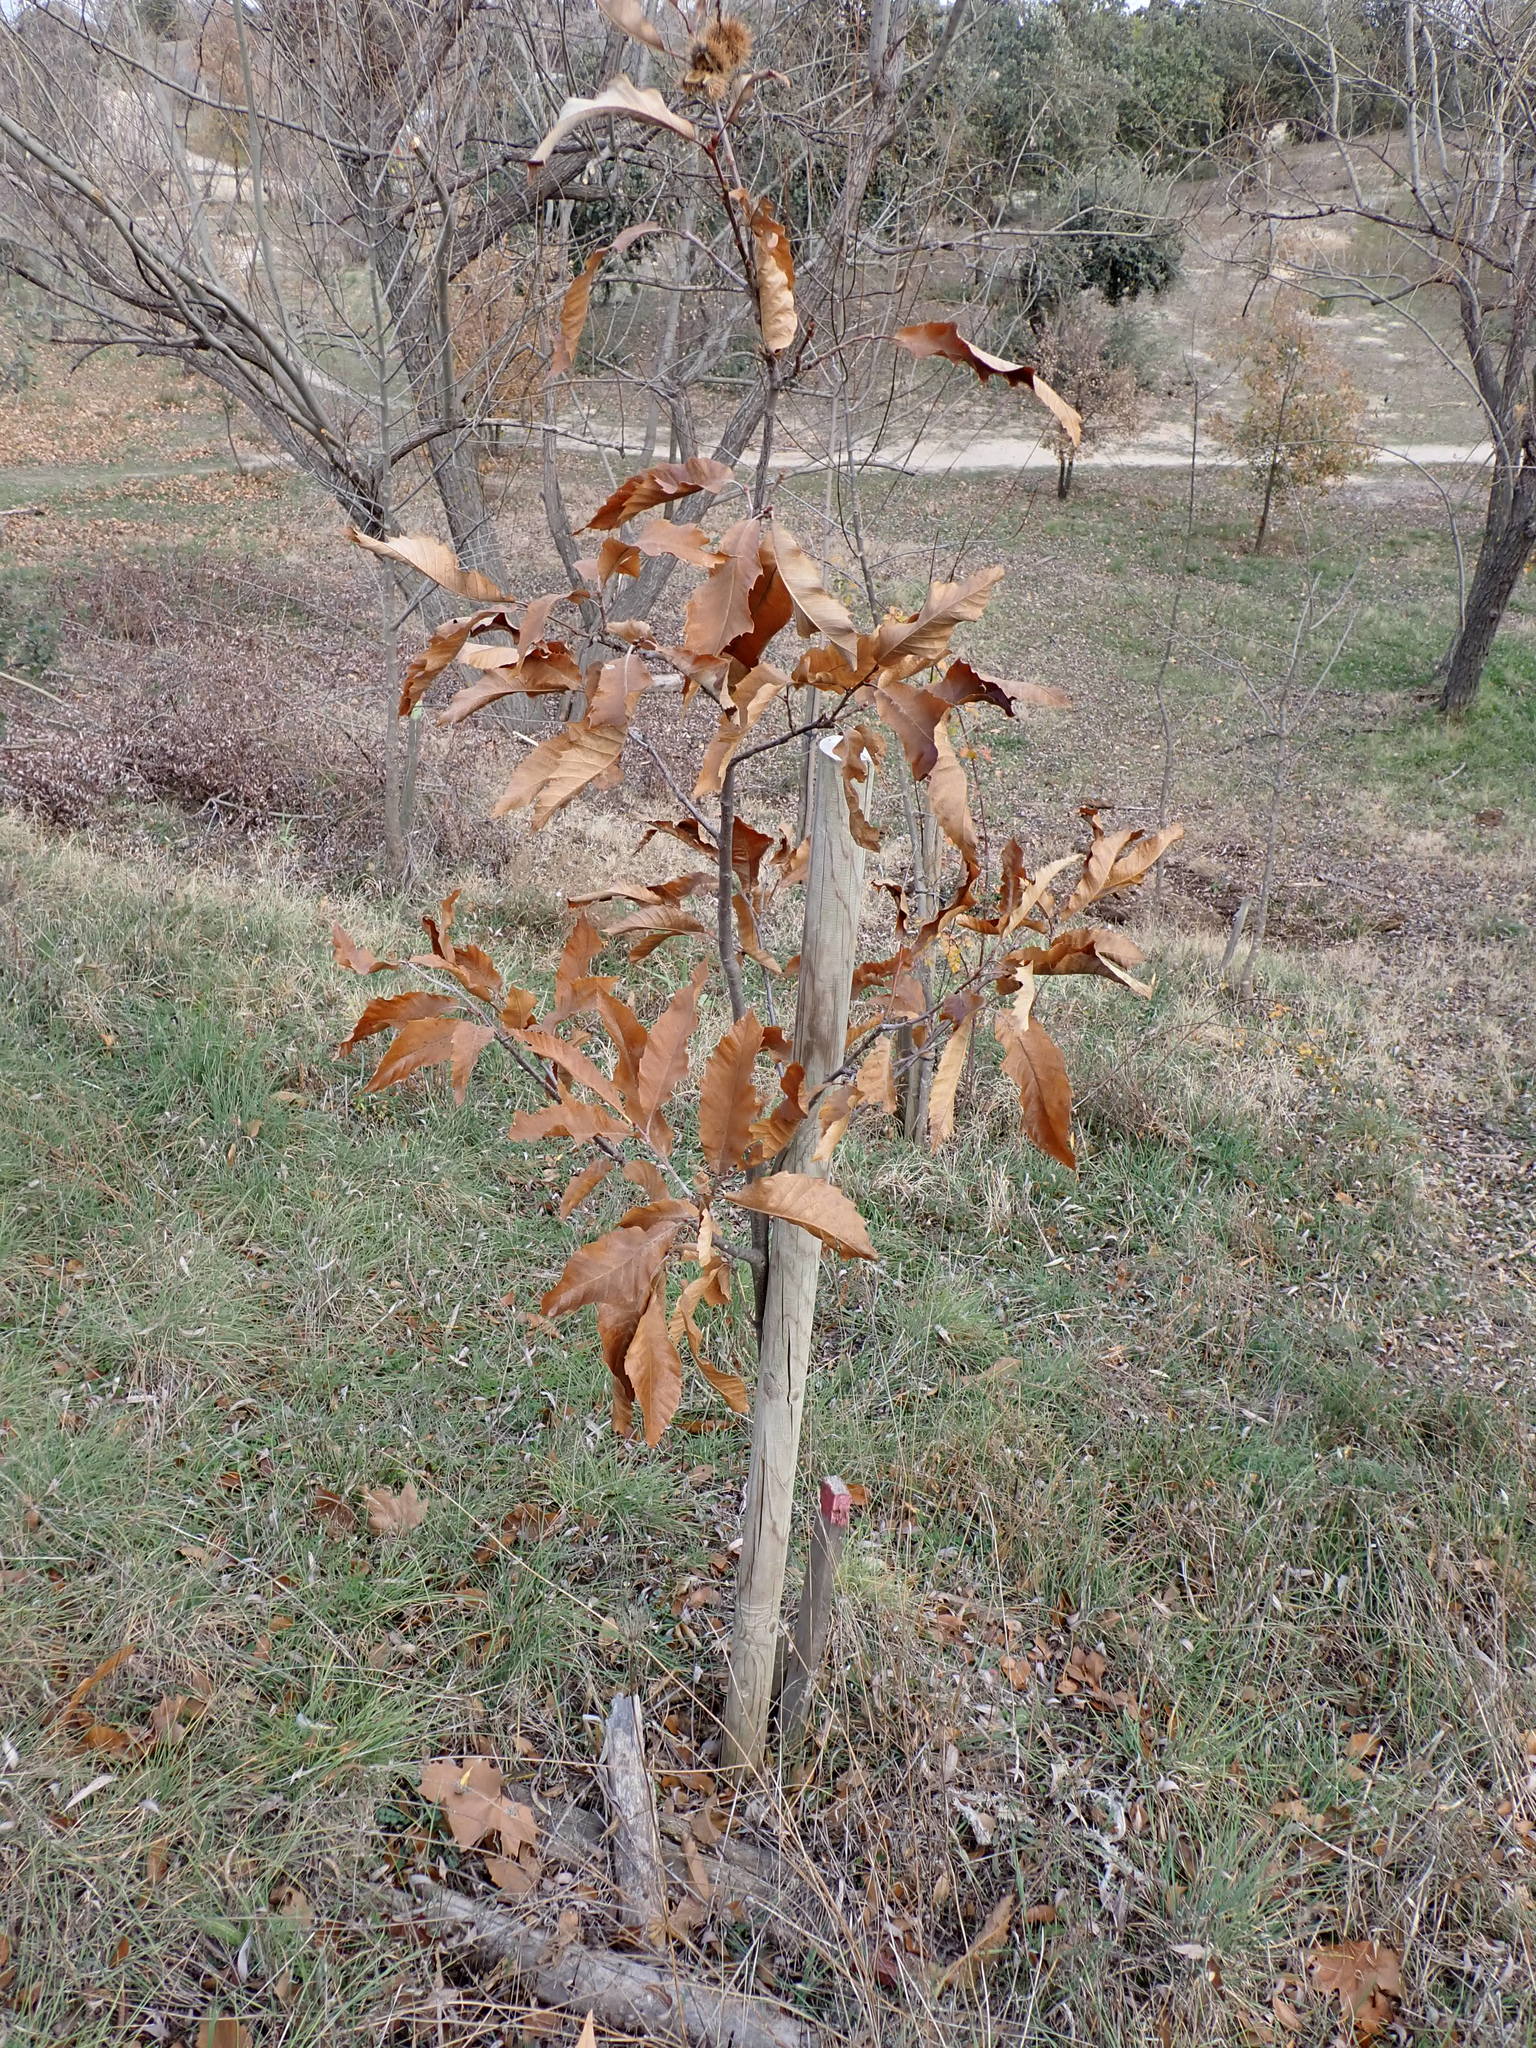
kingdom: Plantae
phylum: Tracheophyta
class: Magnoliopsida
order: Fagales
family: Fagaceae
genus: Castanea
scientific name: Castanea sativa
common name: Sweet chestnut
